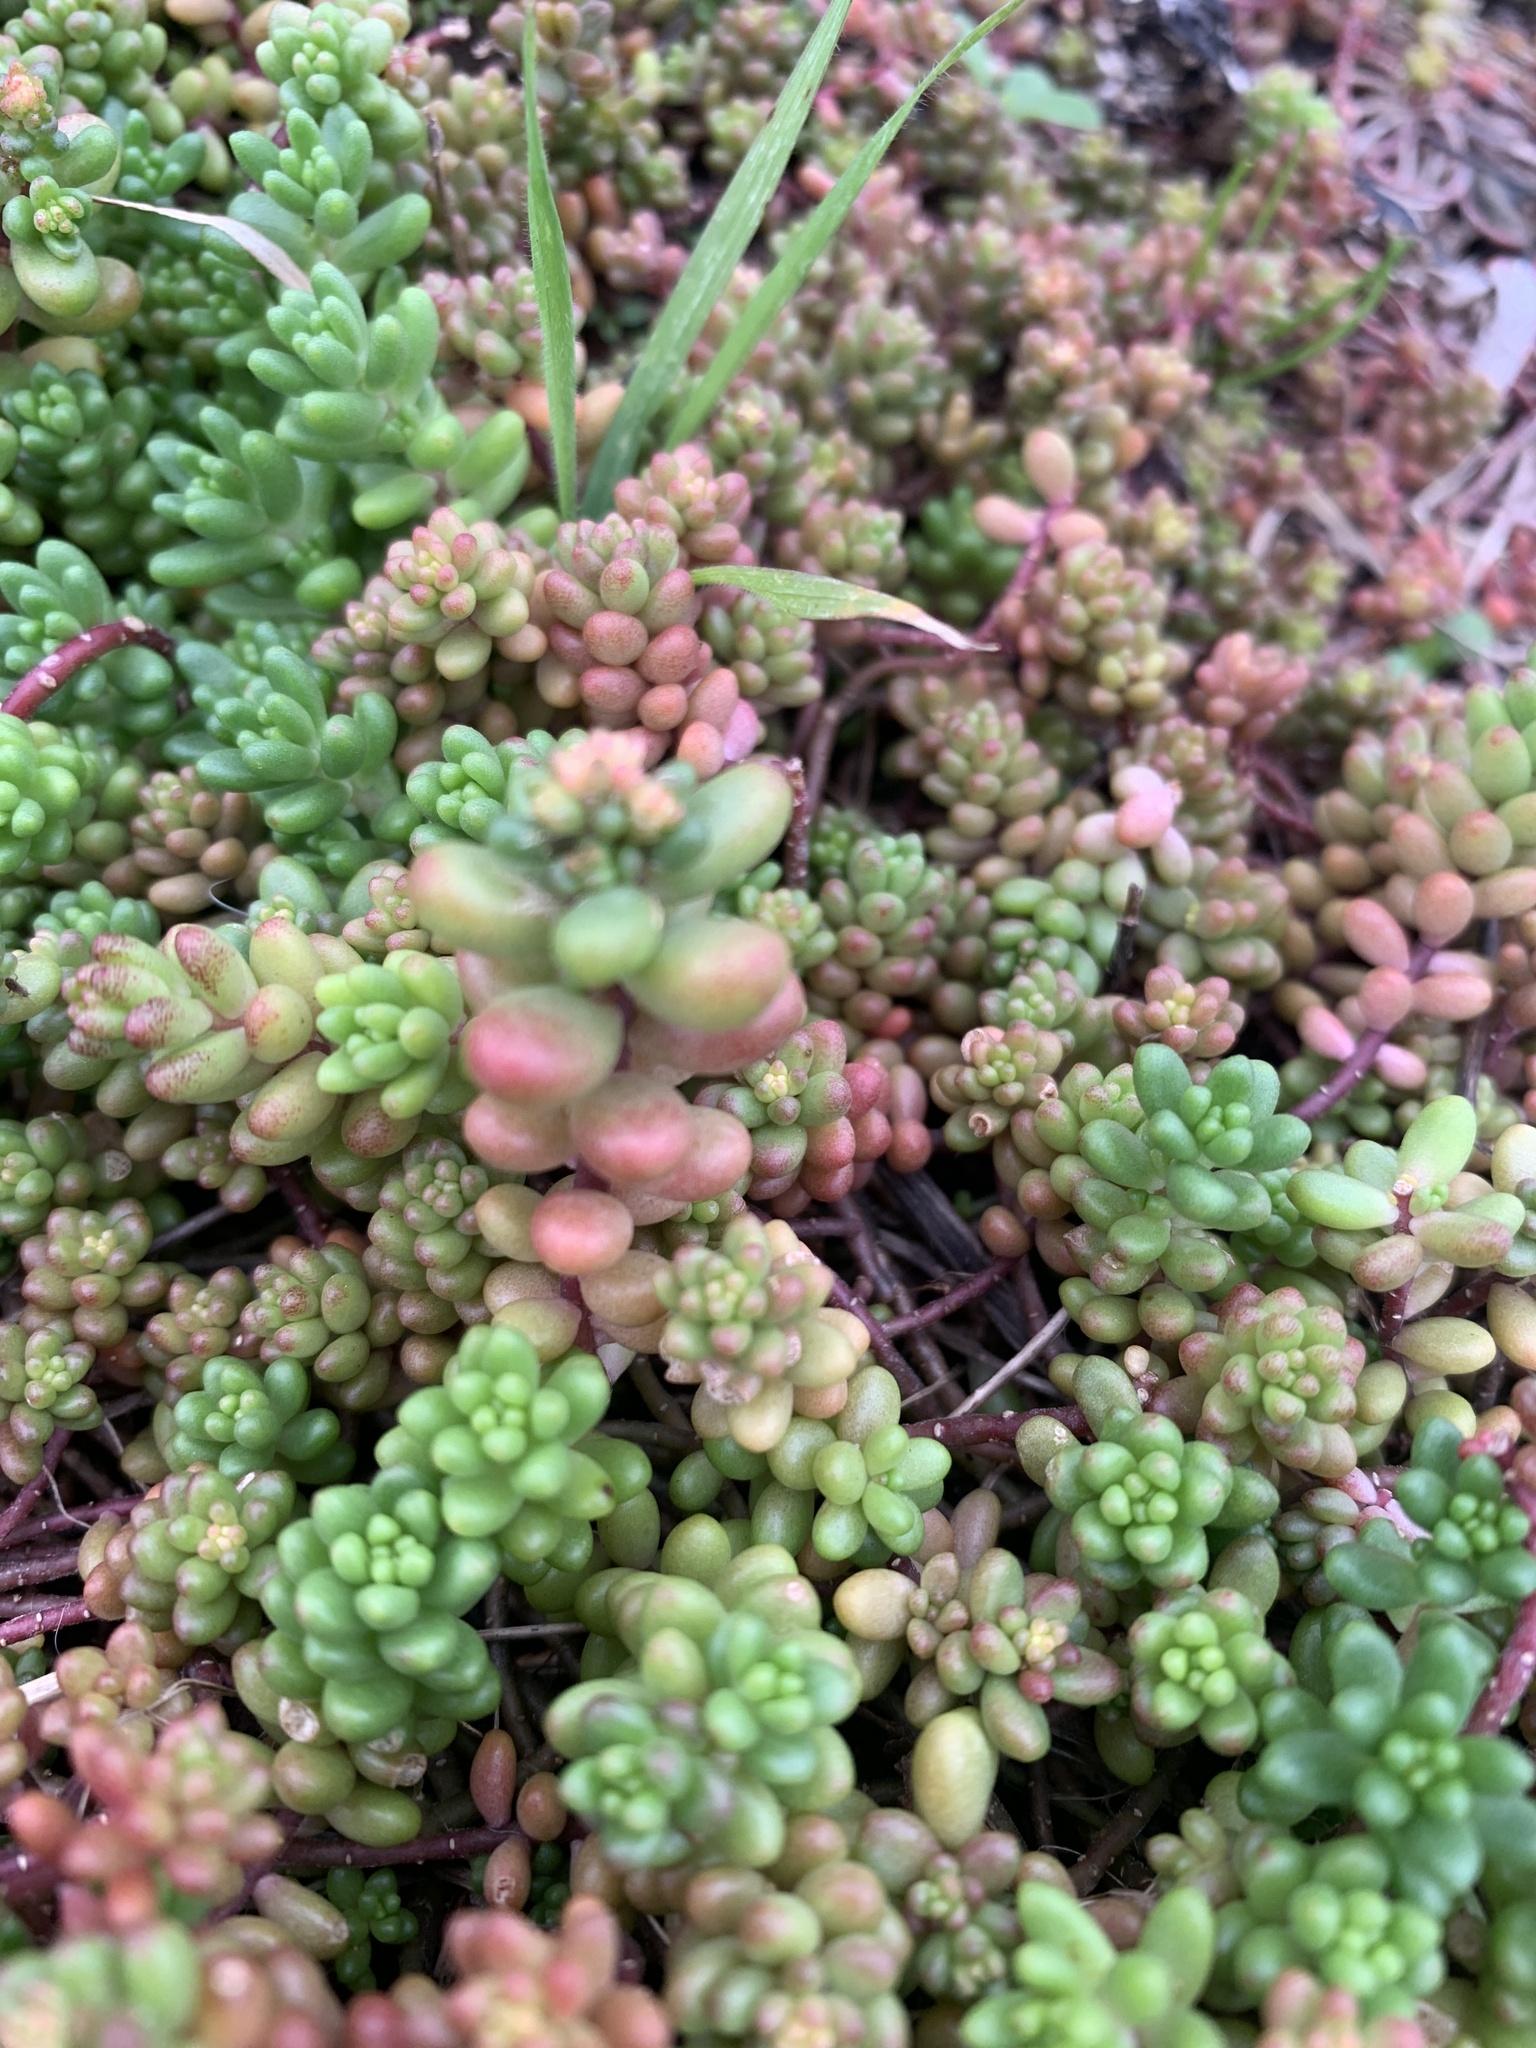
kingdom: Plantae
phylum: Tracheophyta
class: Magnoliopsida
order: Saxifragales
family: Crassulaceae
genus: Sedum
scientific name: Sedum album
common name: White stonecrop
